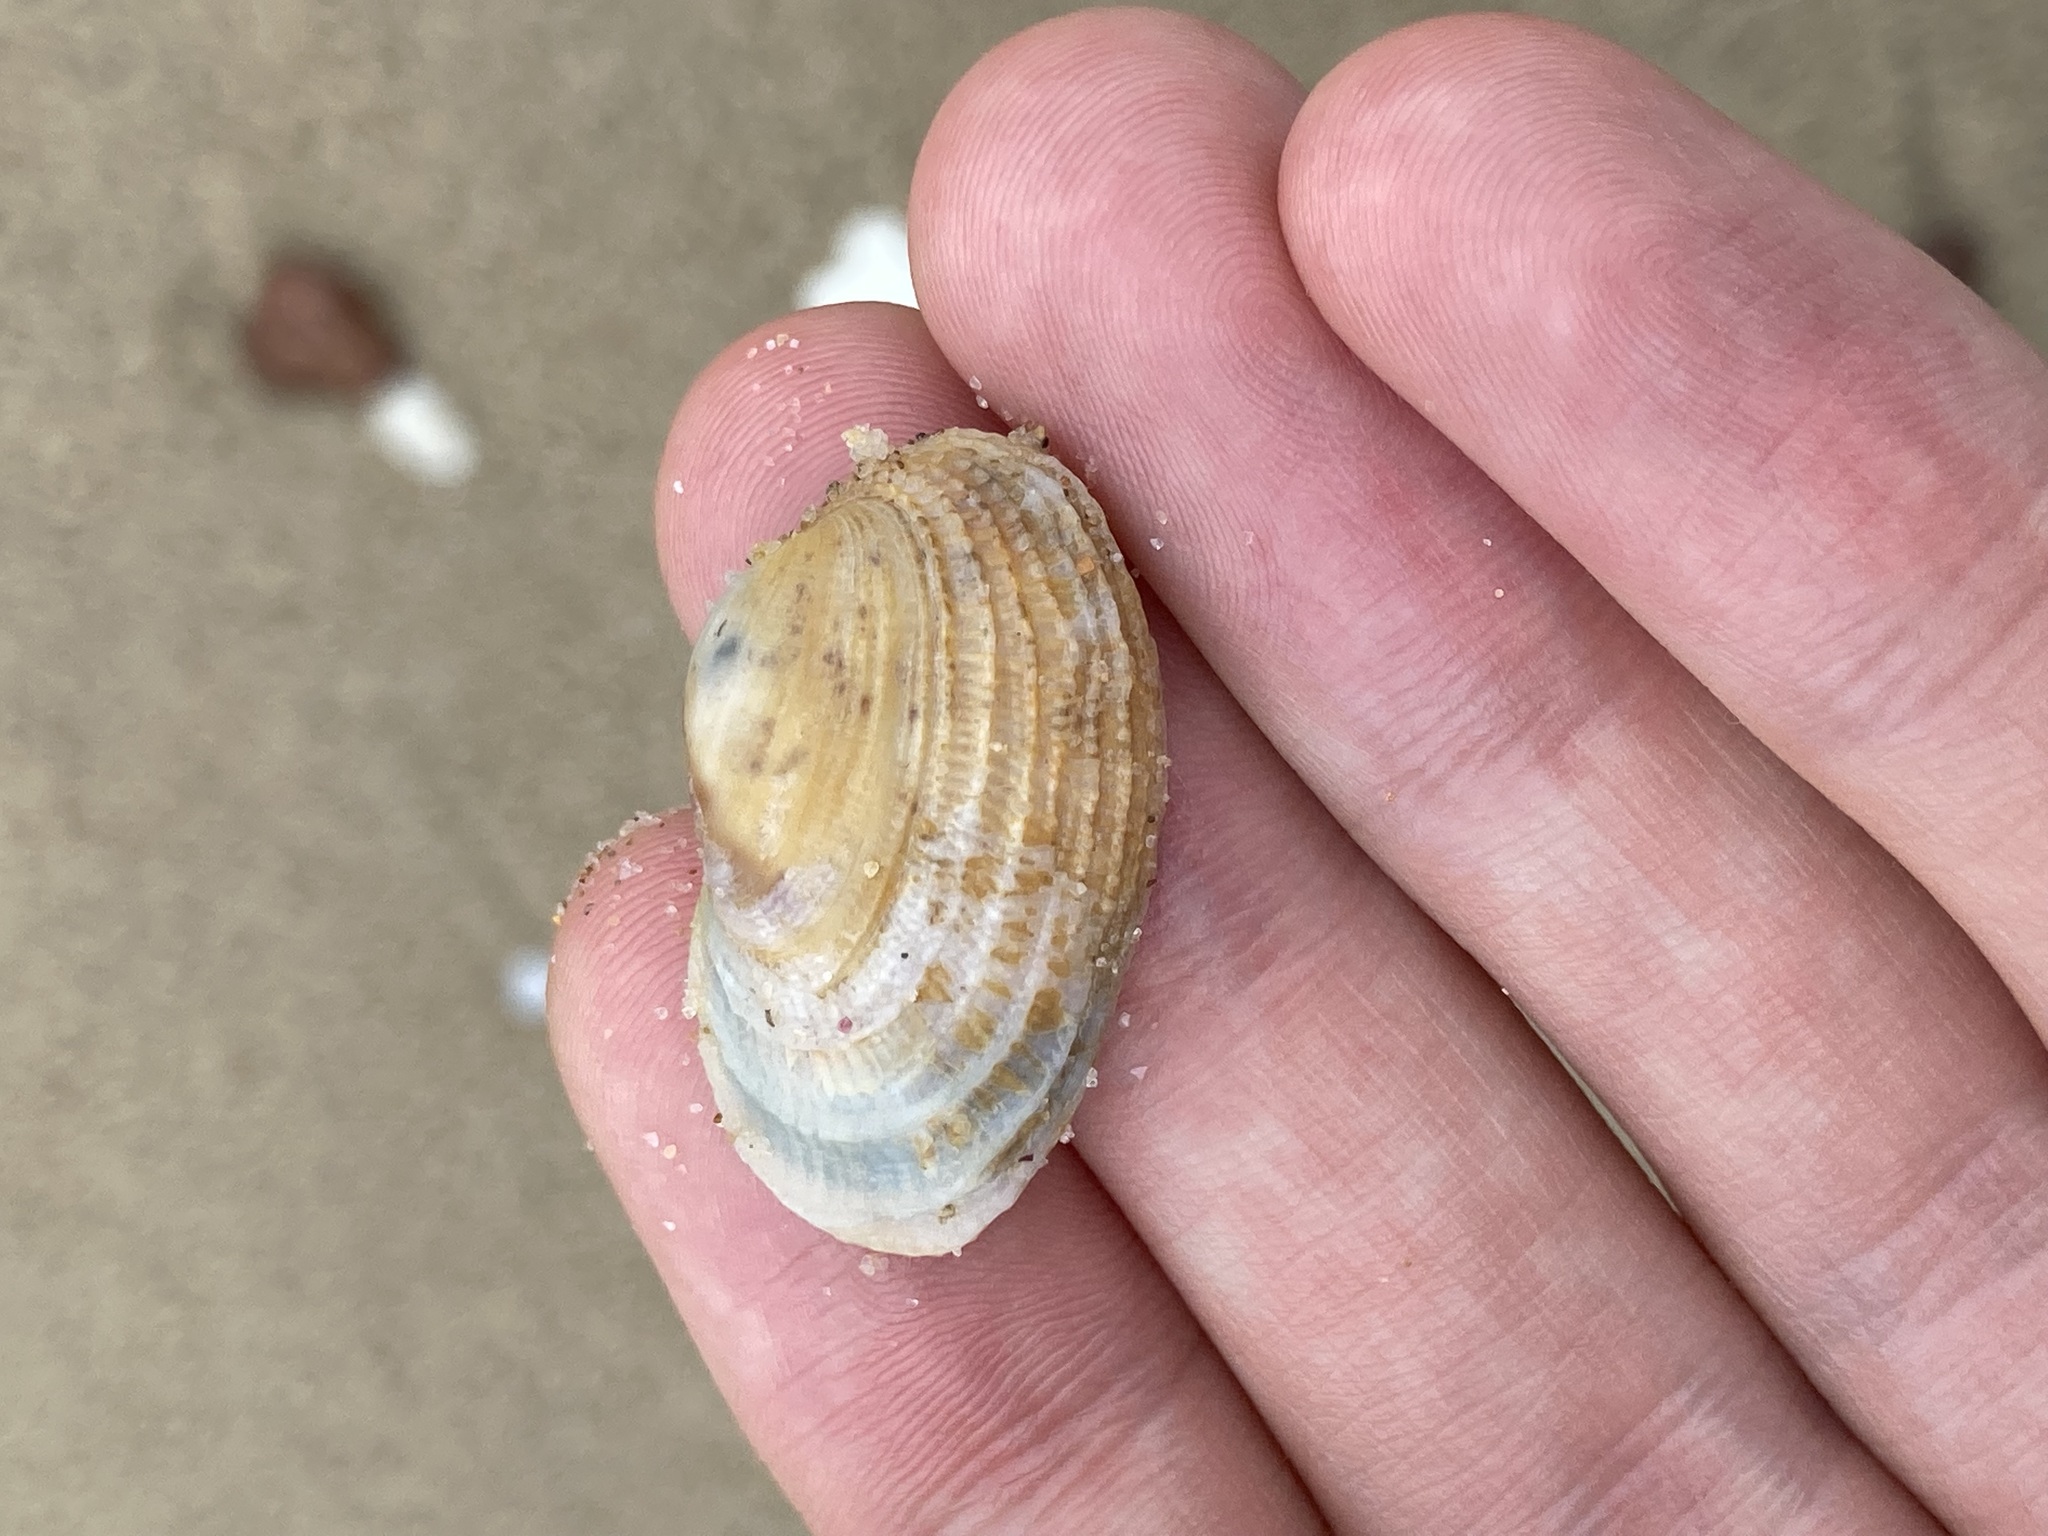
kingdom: Animalia
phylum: Mollusca
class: Bivalvia
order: Venerida
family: Veneridae
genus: Irus
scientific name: Irus crenatus
